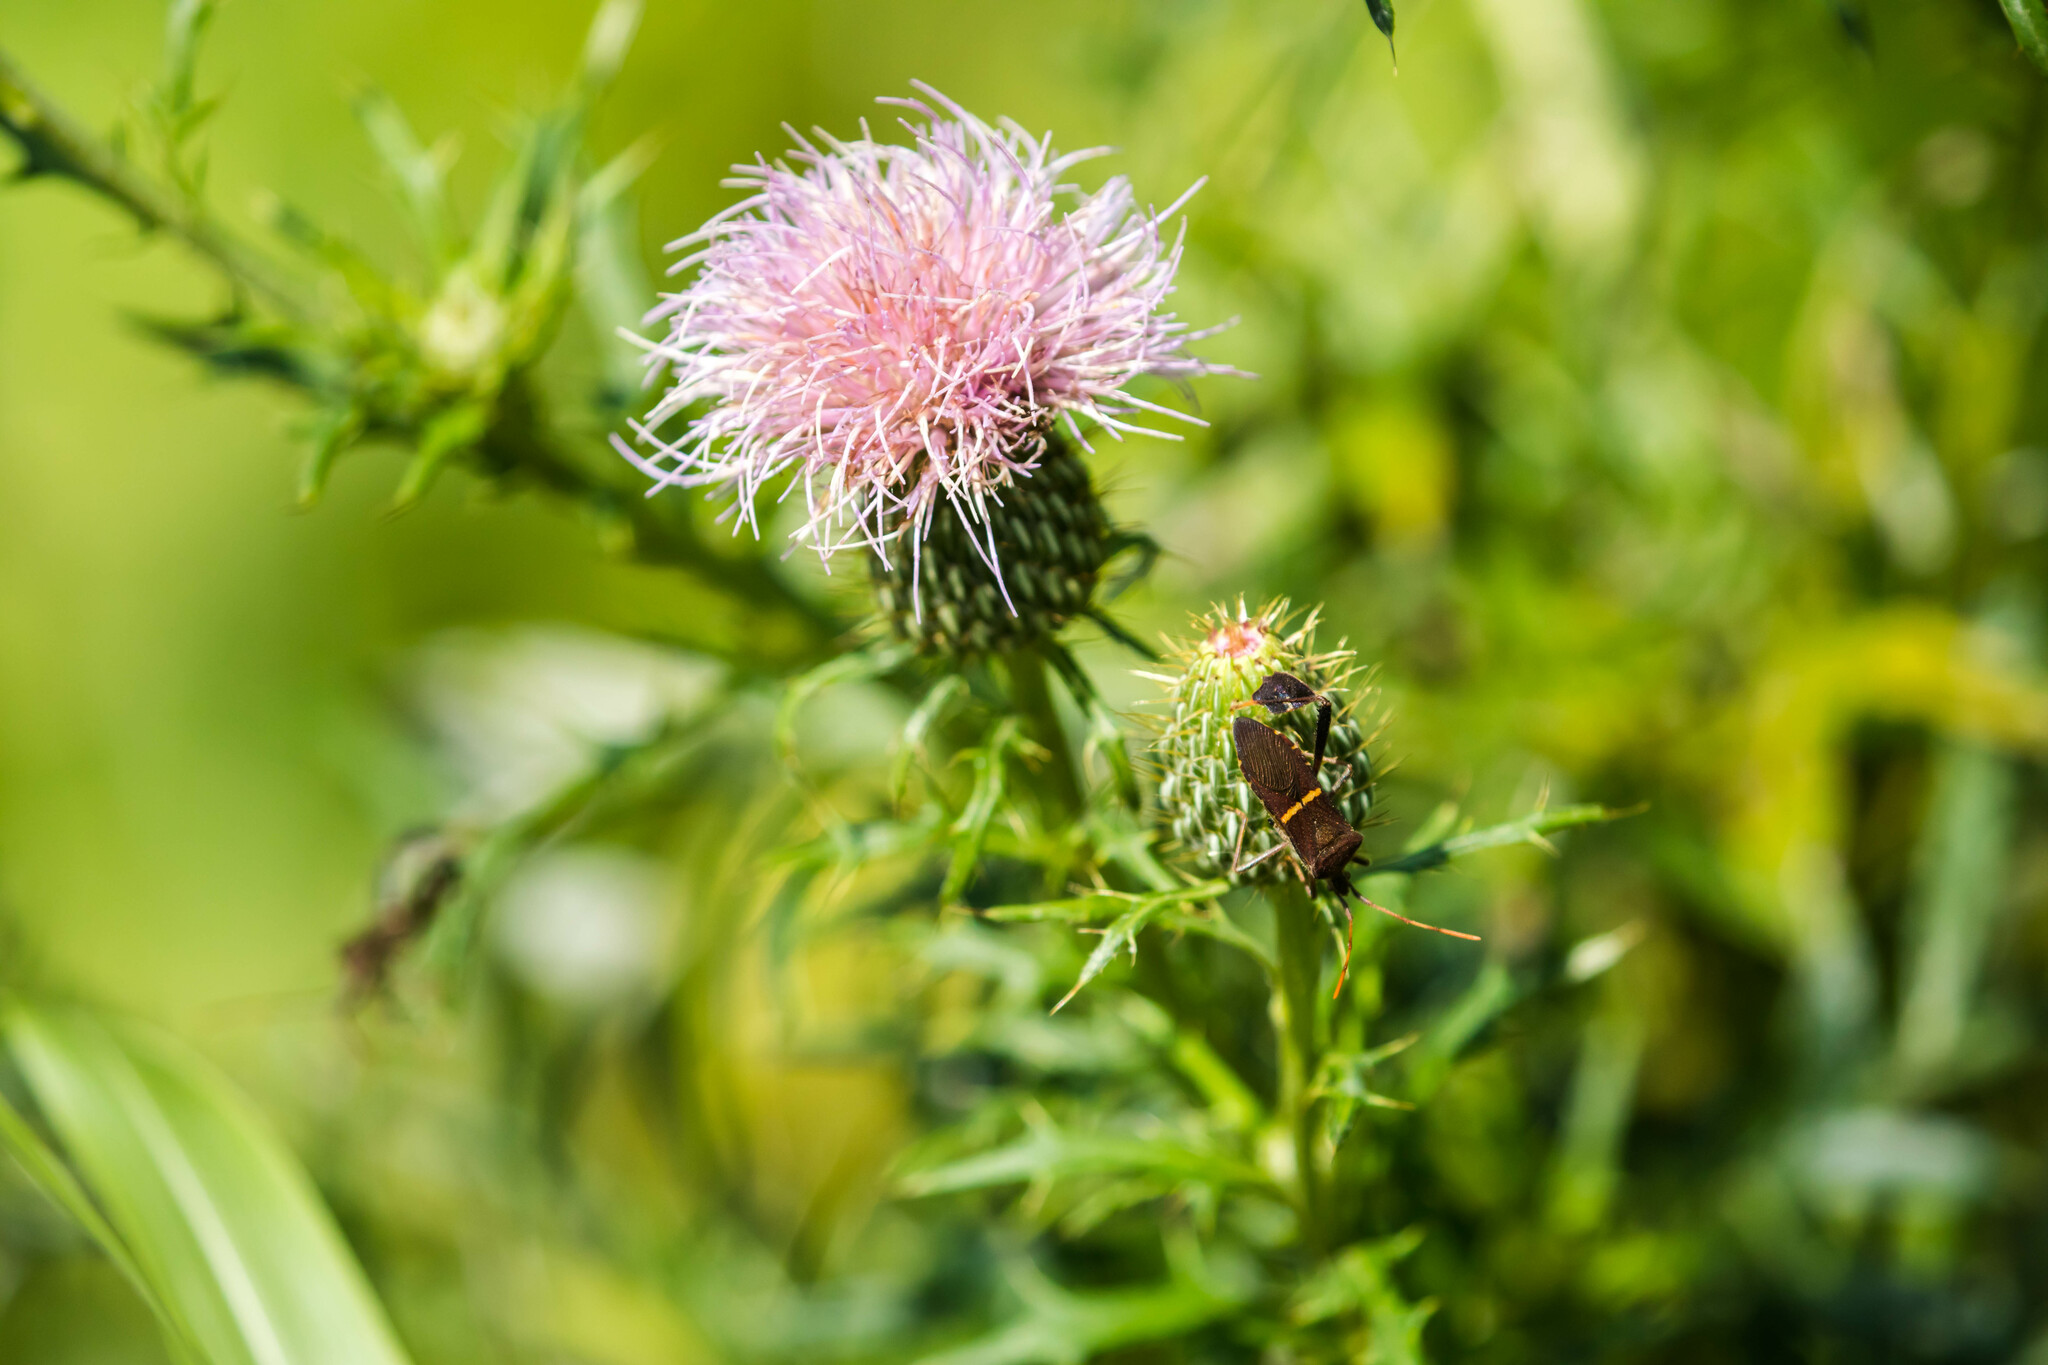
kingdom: Animalia
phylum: Arthropoda
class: Insecta
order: Hemiptera
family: Coreidae
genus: Leptoglossus
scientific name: Leptoglossus phyllopus
